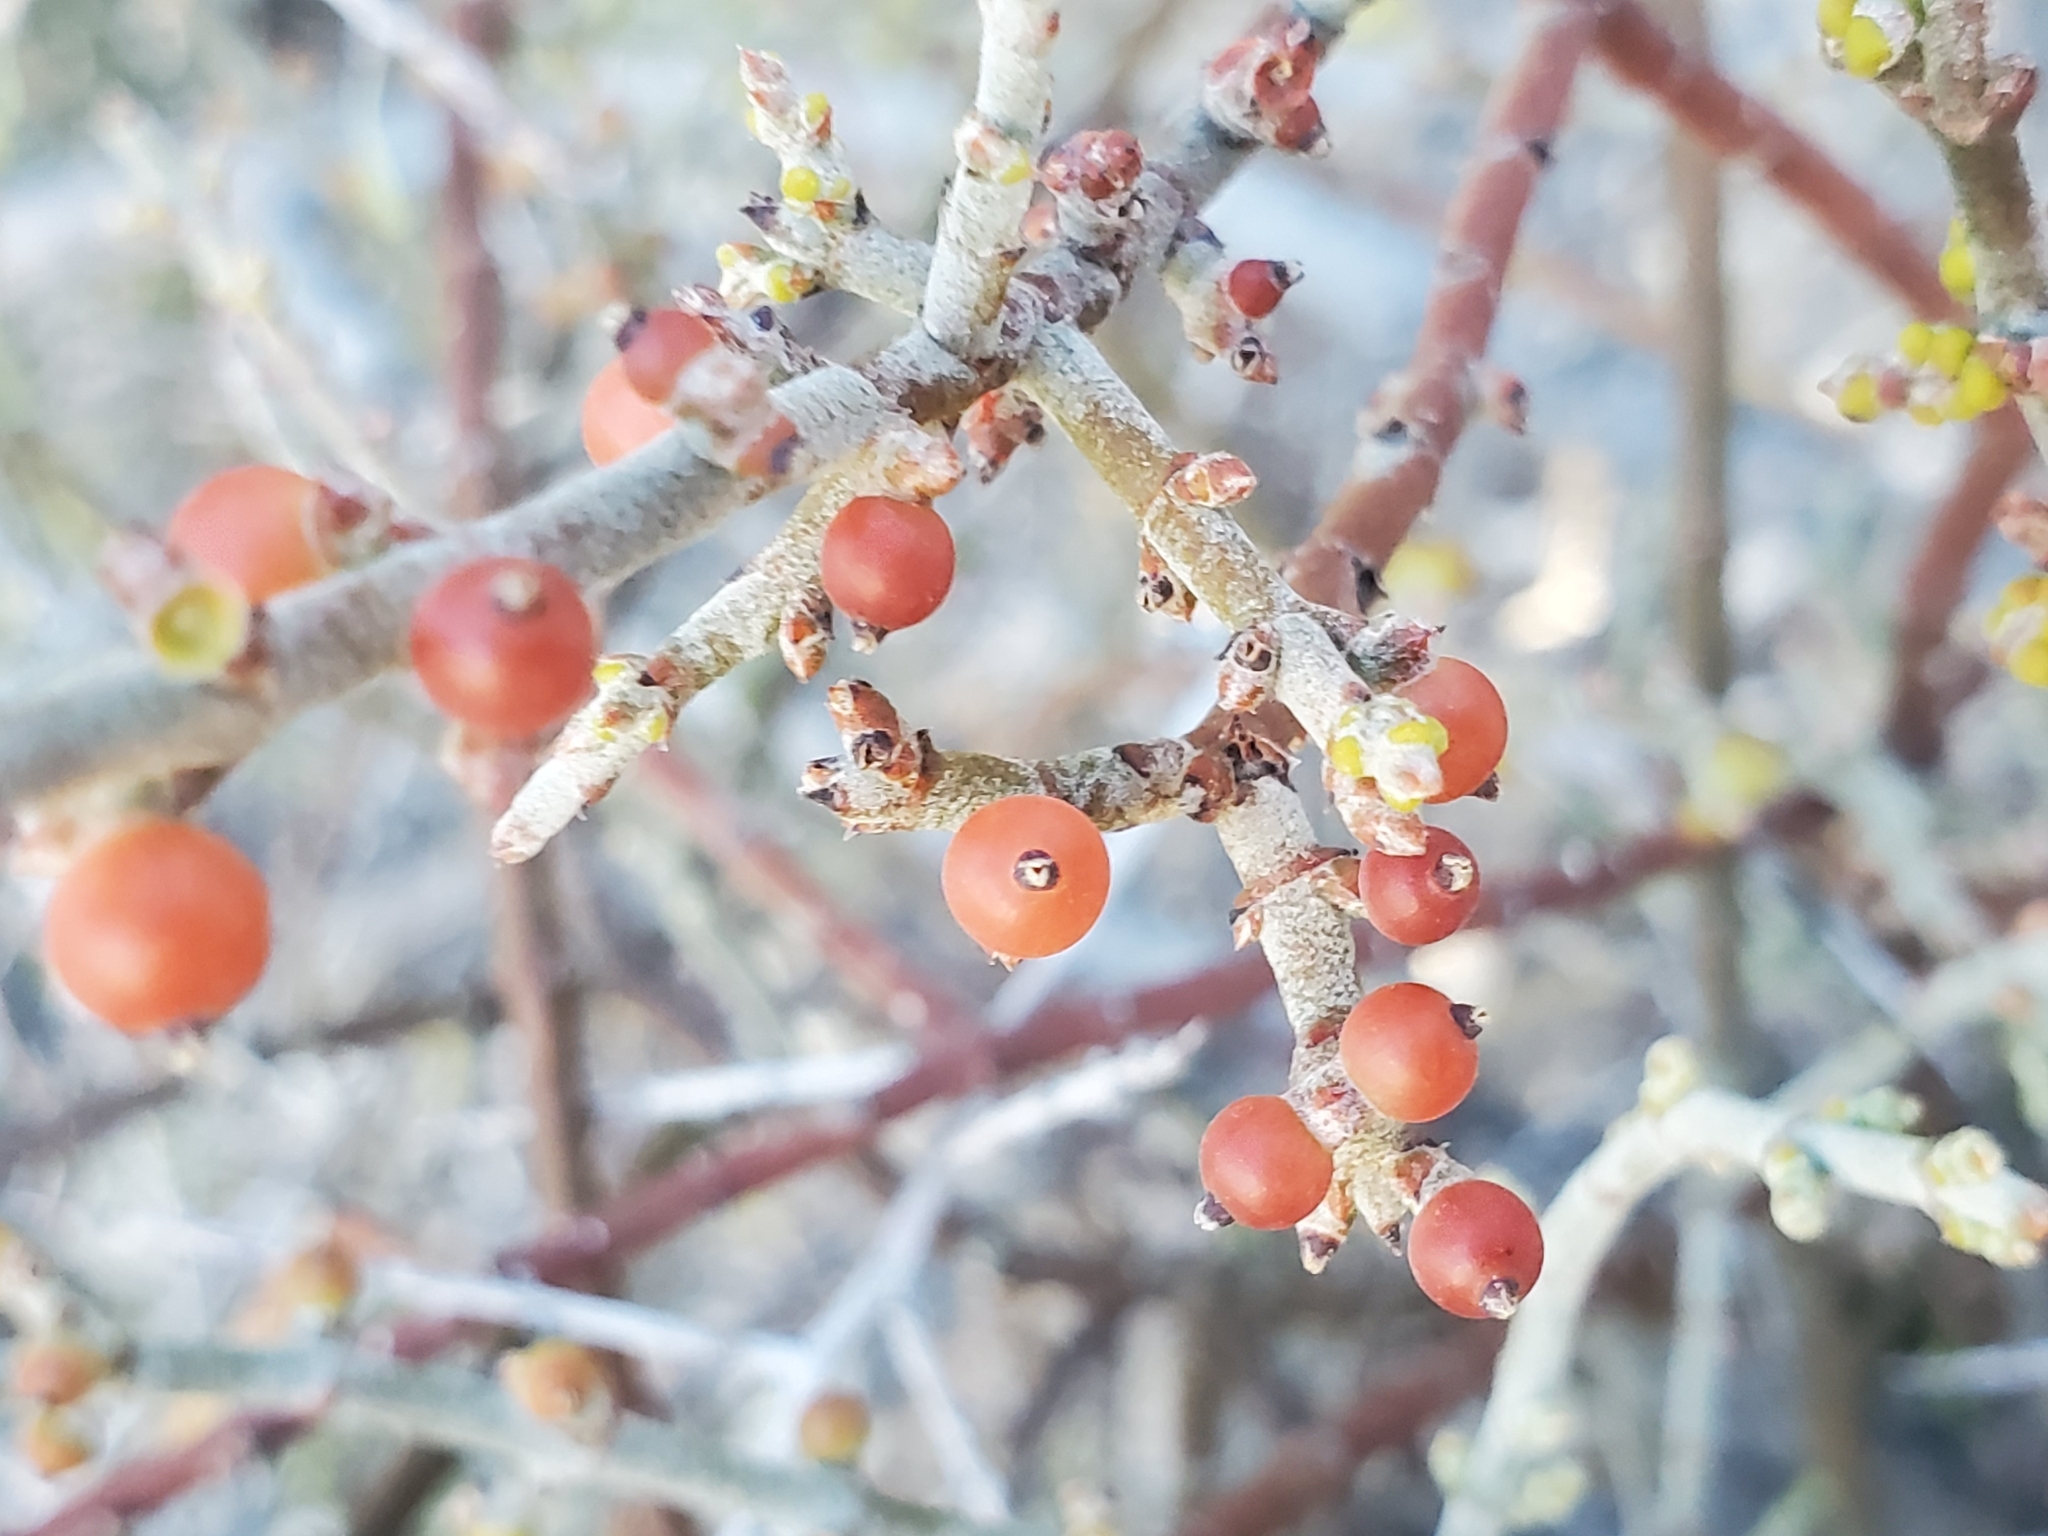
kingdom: Plantae
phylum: Tracheophyta
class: Magnoliopsida
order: Santalales
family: Viscaceae
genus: Phoradendron
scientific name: Phoradendron californicum
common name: Acacia mistletoe
